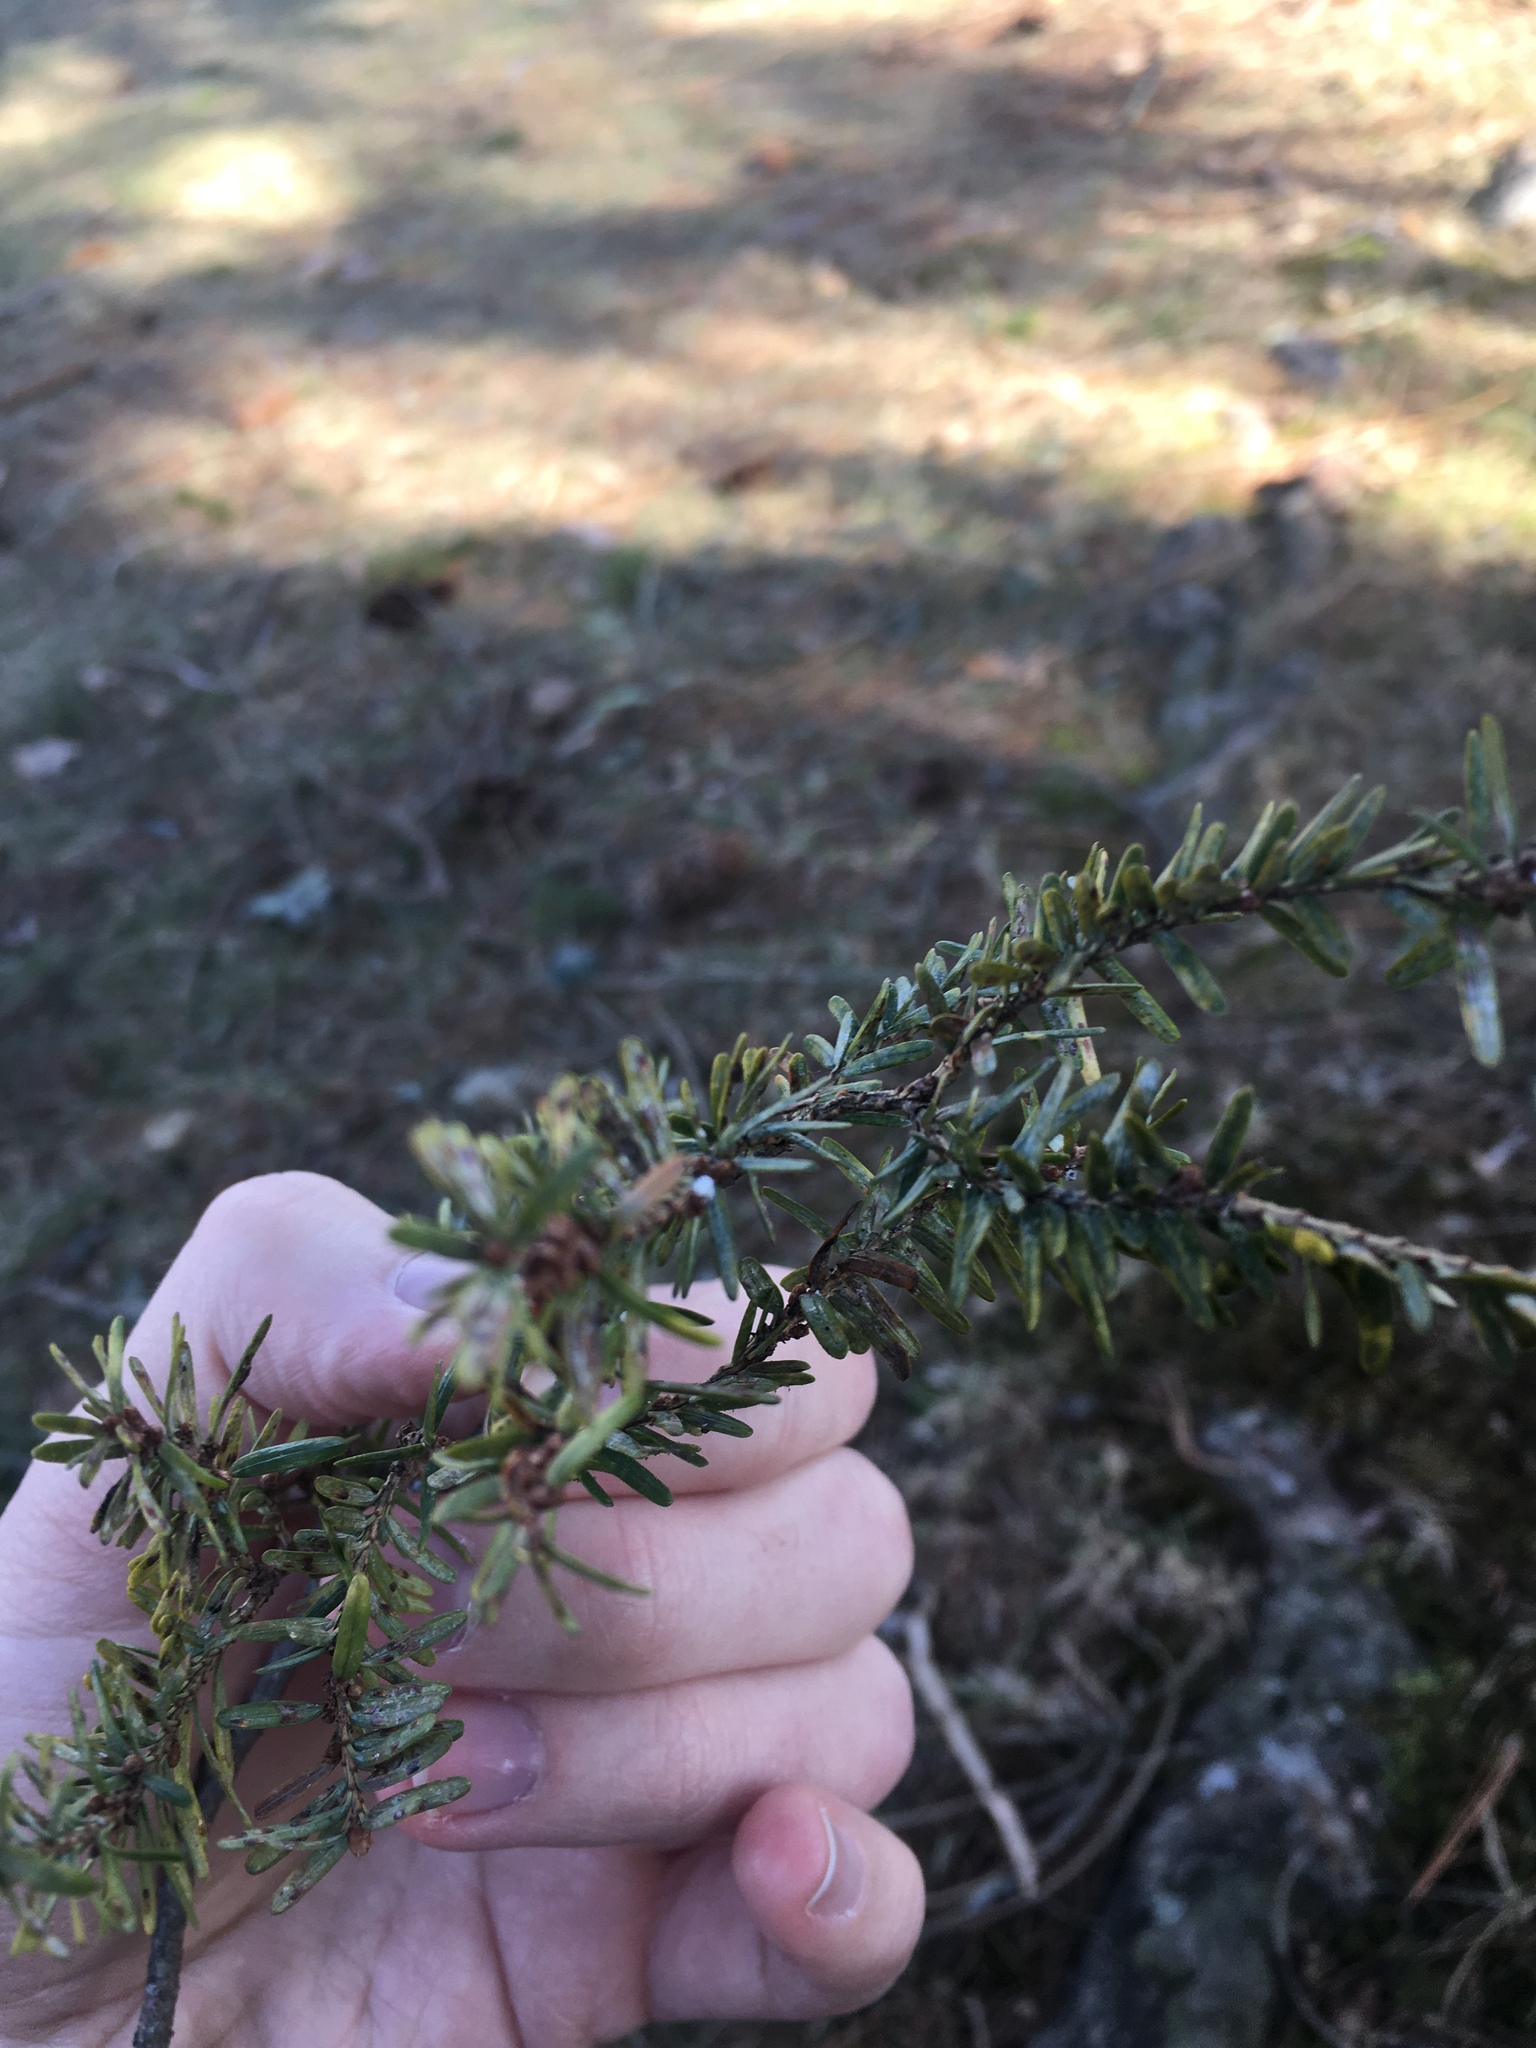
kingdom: Plantae
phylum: Tracheophyta
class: Pinopsida
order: Pinales
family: Pinaceae
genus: Tsuga
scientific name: Tsuga canadensis
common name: Eastern hemlock
